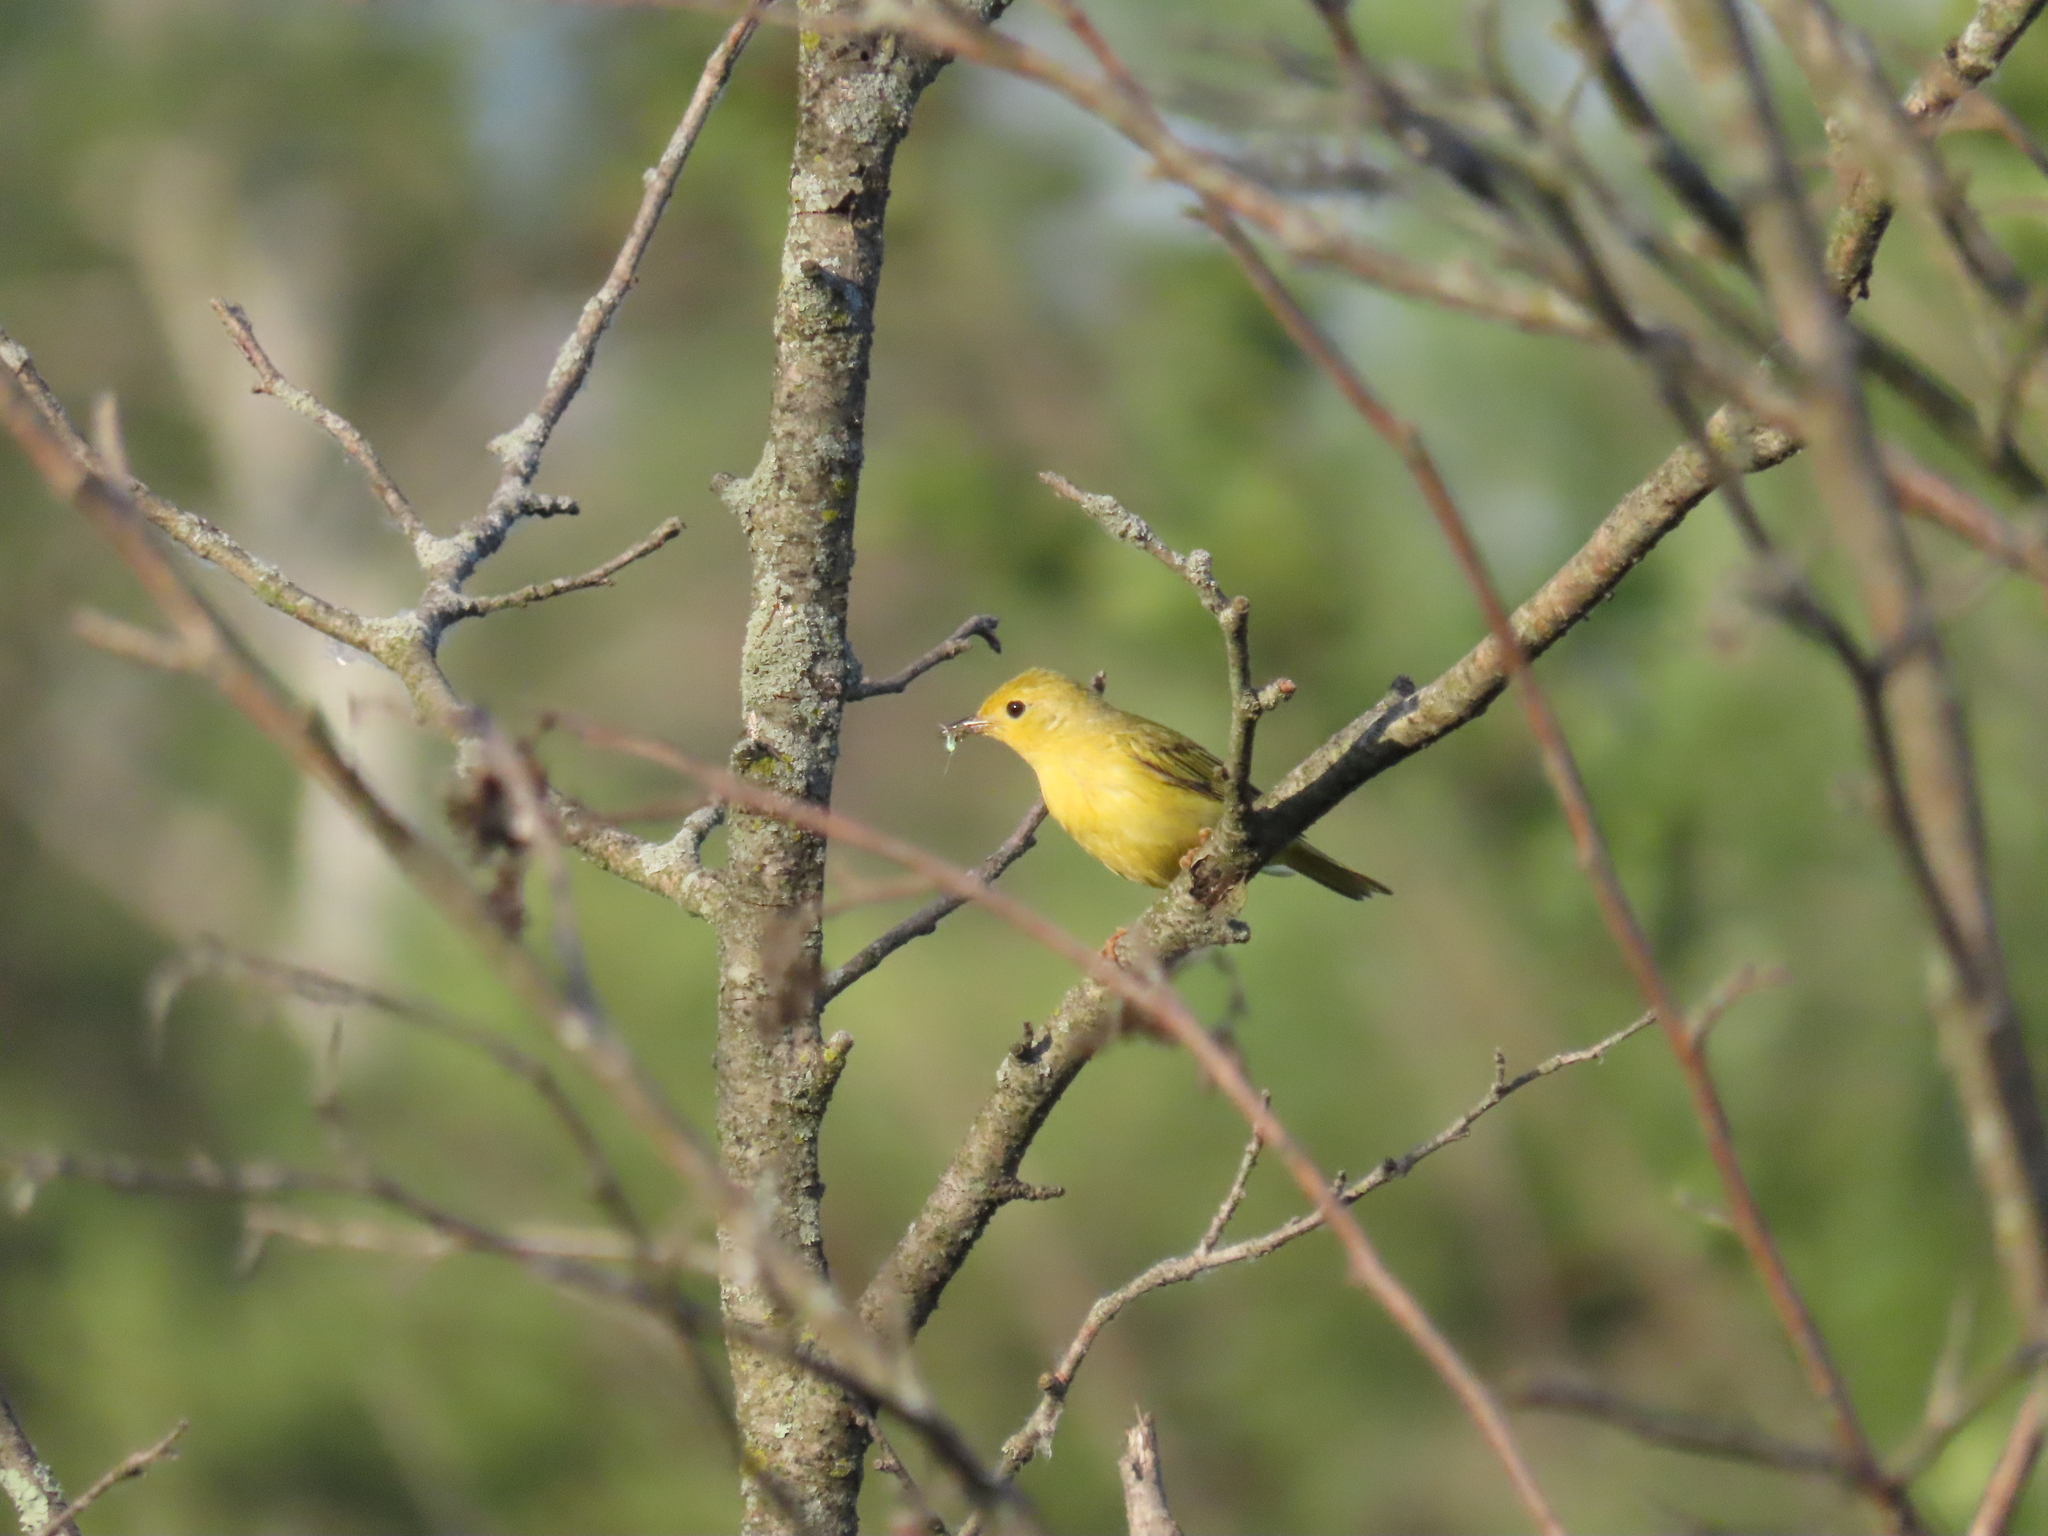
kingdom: Animalia
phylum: Chordata
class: Aves
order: Passeriformes
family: Parulidae
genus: Setophaga
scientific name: Setophaga petechia
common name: Yellow warbler
